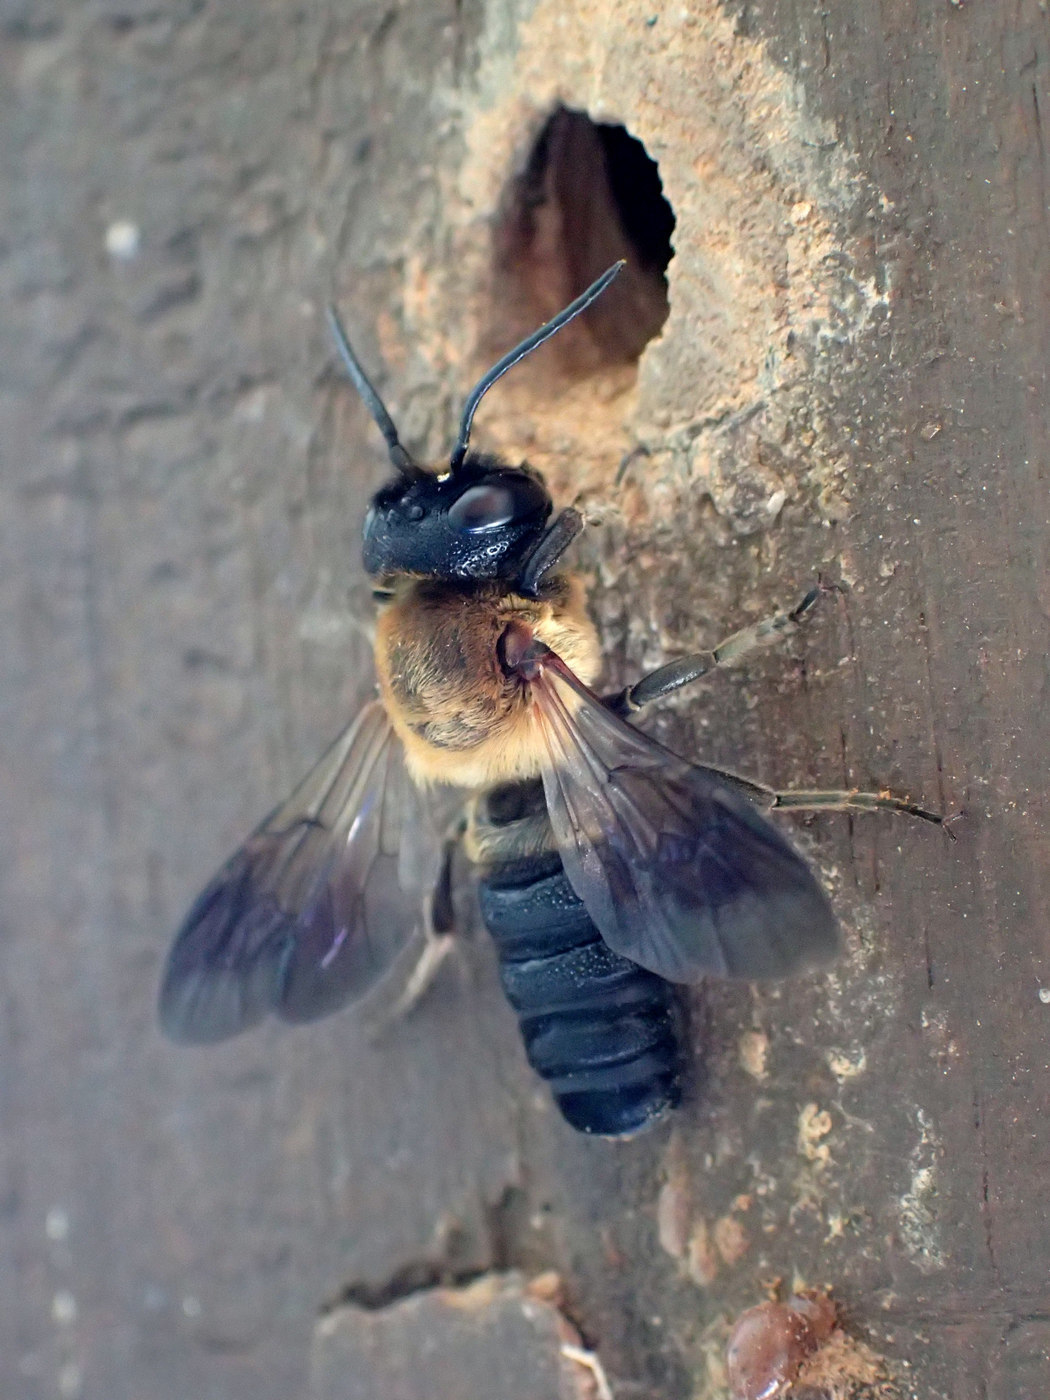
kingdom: Animalia
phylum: Arthropoda
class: Insecta
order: Hymenoptera
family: Megachilidae
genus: Megachile
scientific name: Megachile sculpturalis
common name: Sculptured resin bee
